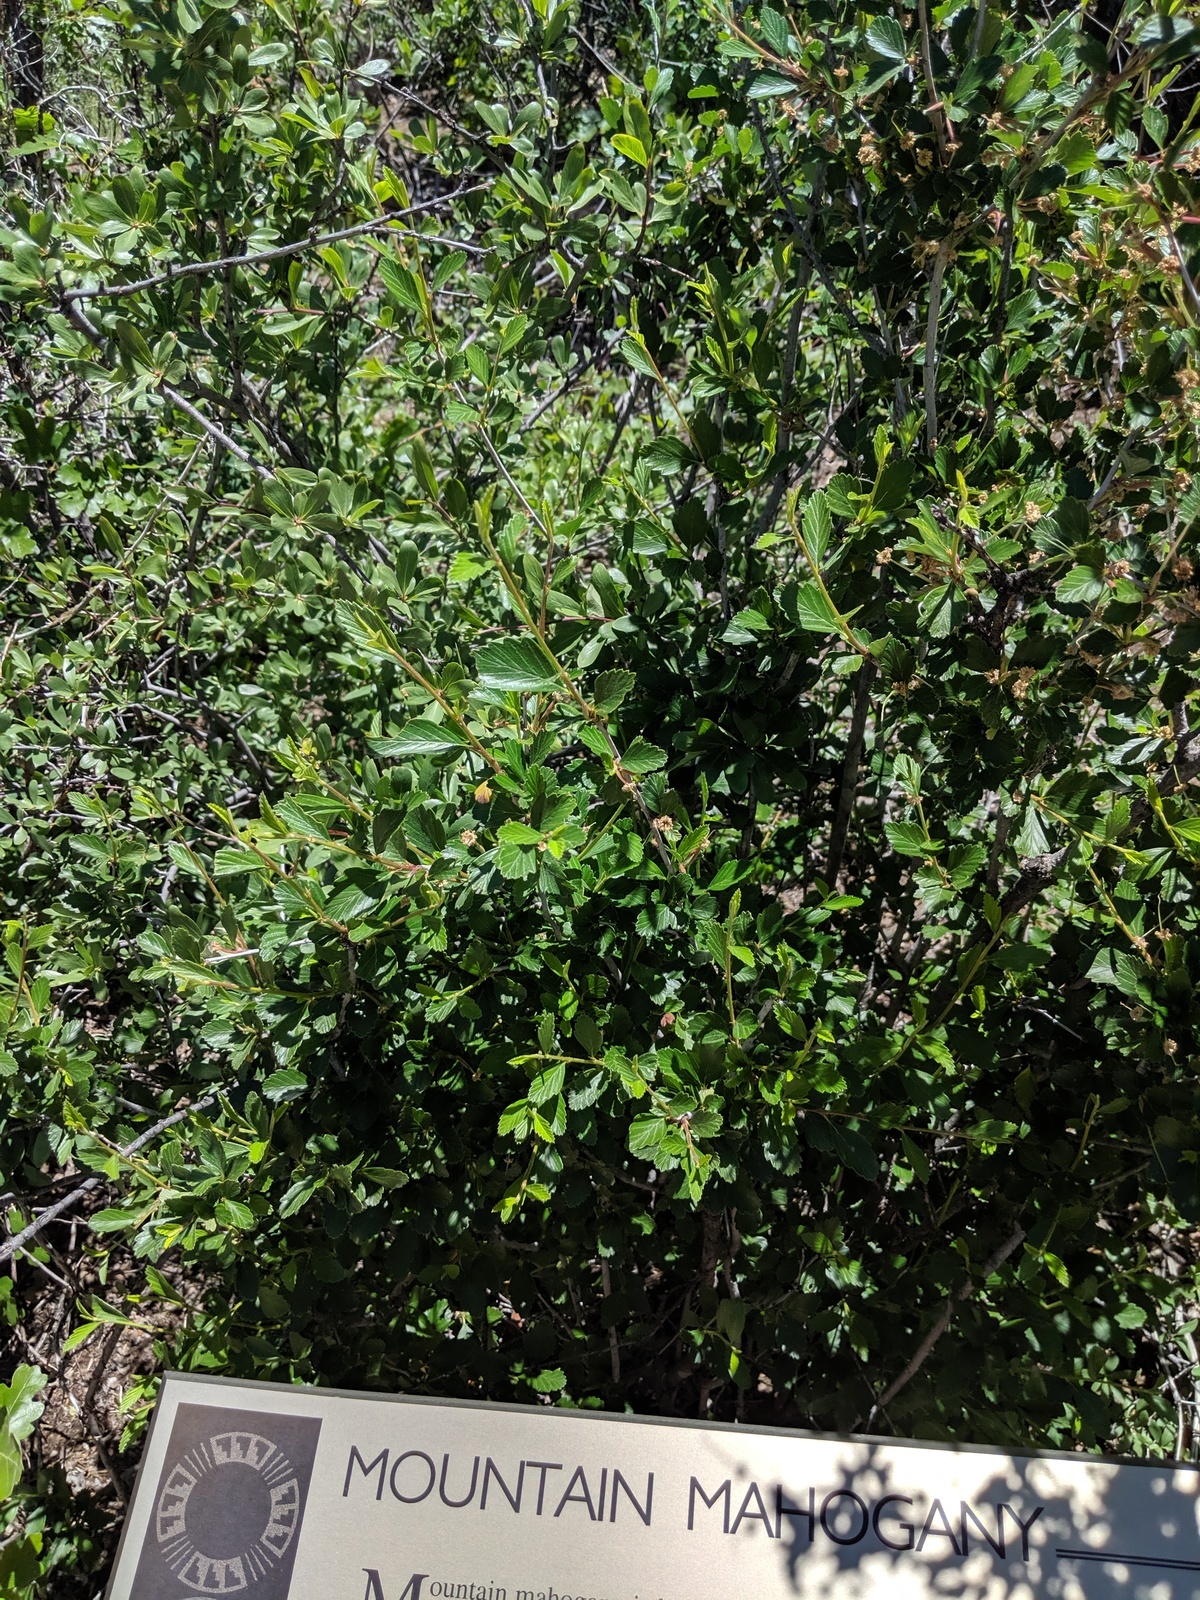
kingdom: Plantae
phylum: Tracheophyta
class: Magnoliopsida
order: Rosales
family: Rosaceae
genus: Cercocarpus
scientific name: Cercocarpus montanus
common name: Alder-leaf cercocarpus
